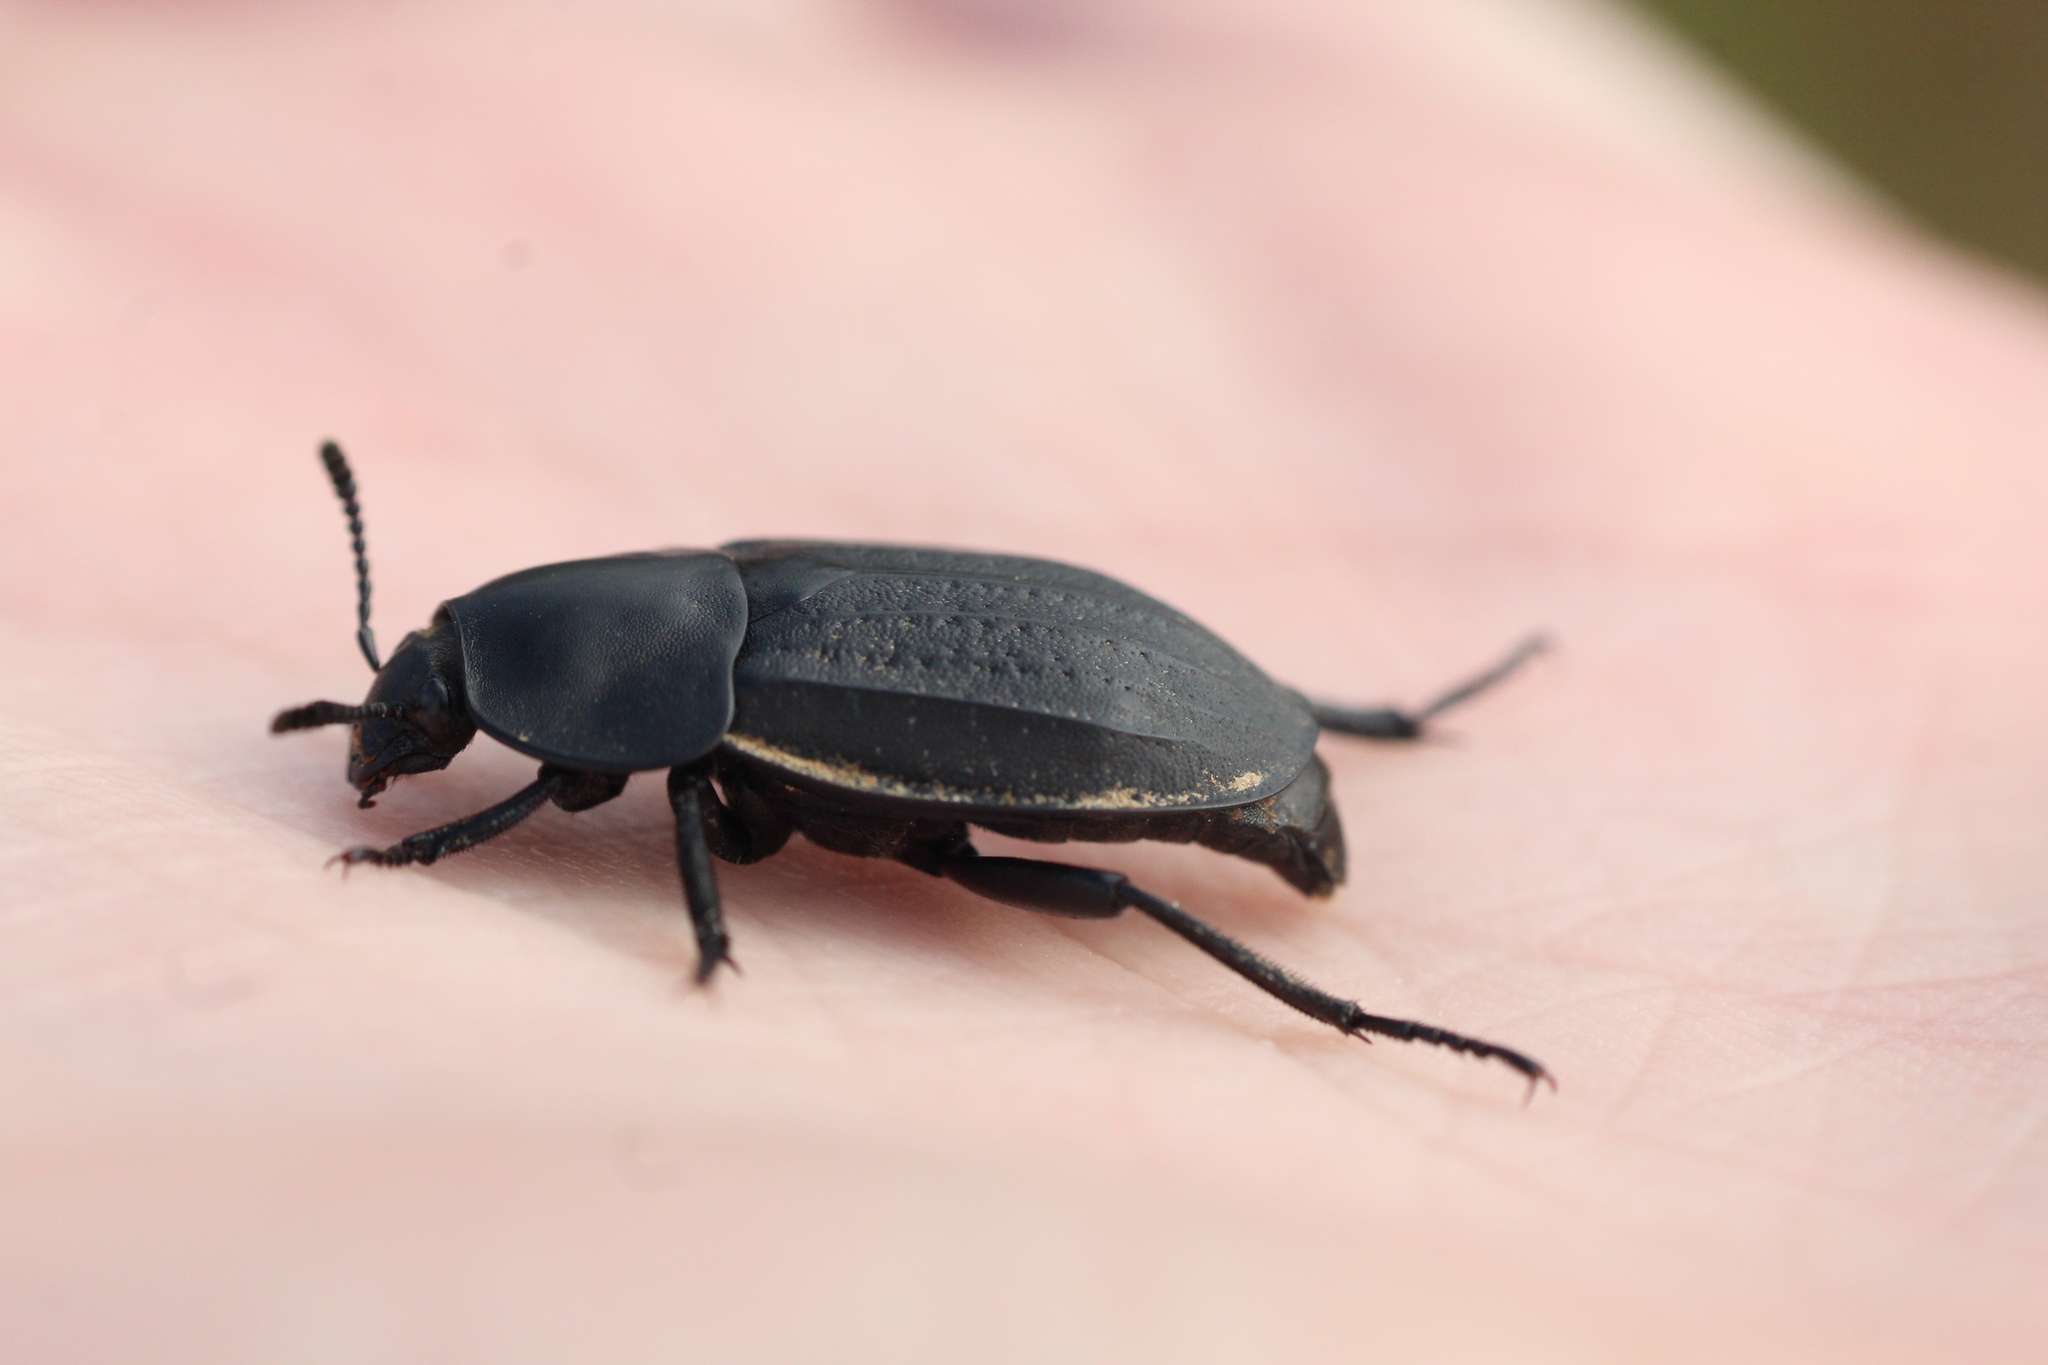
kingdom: Animalia
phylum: Arthropoda
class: Insecta
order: Coleoptera
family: Staphylinidae
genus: Silpha
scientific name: Silpha olivieri
